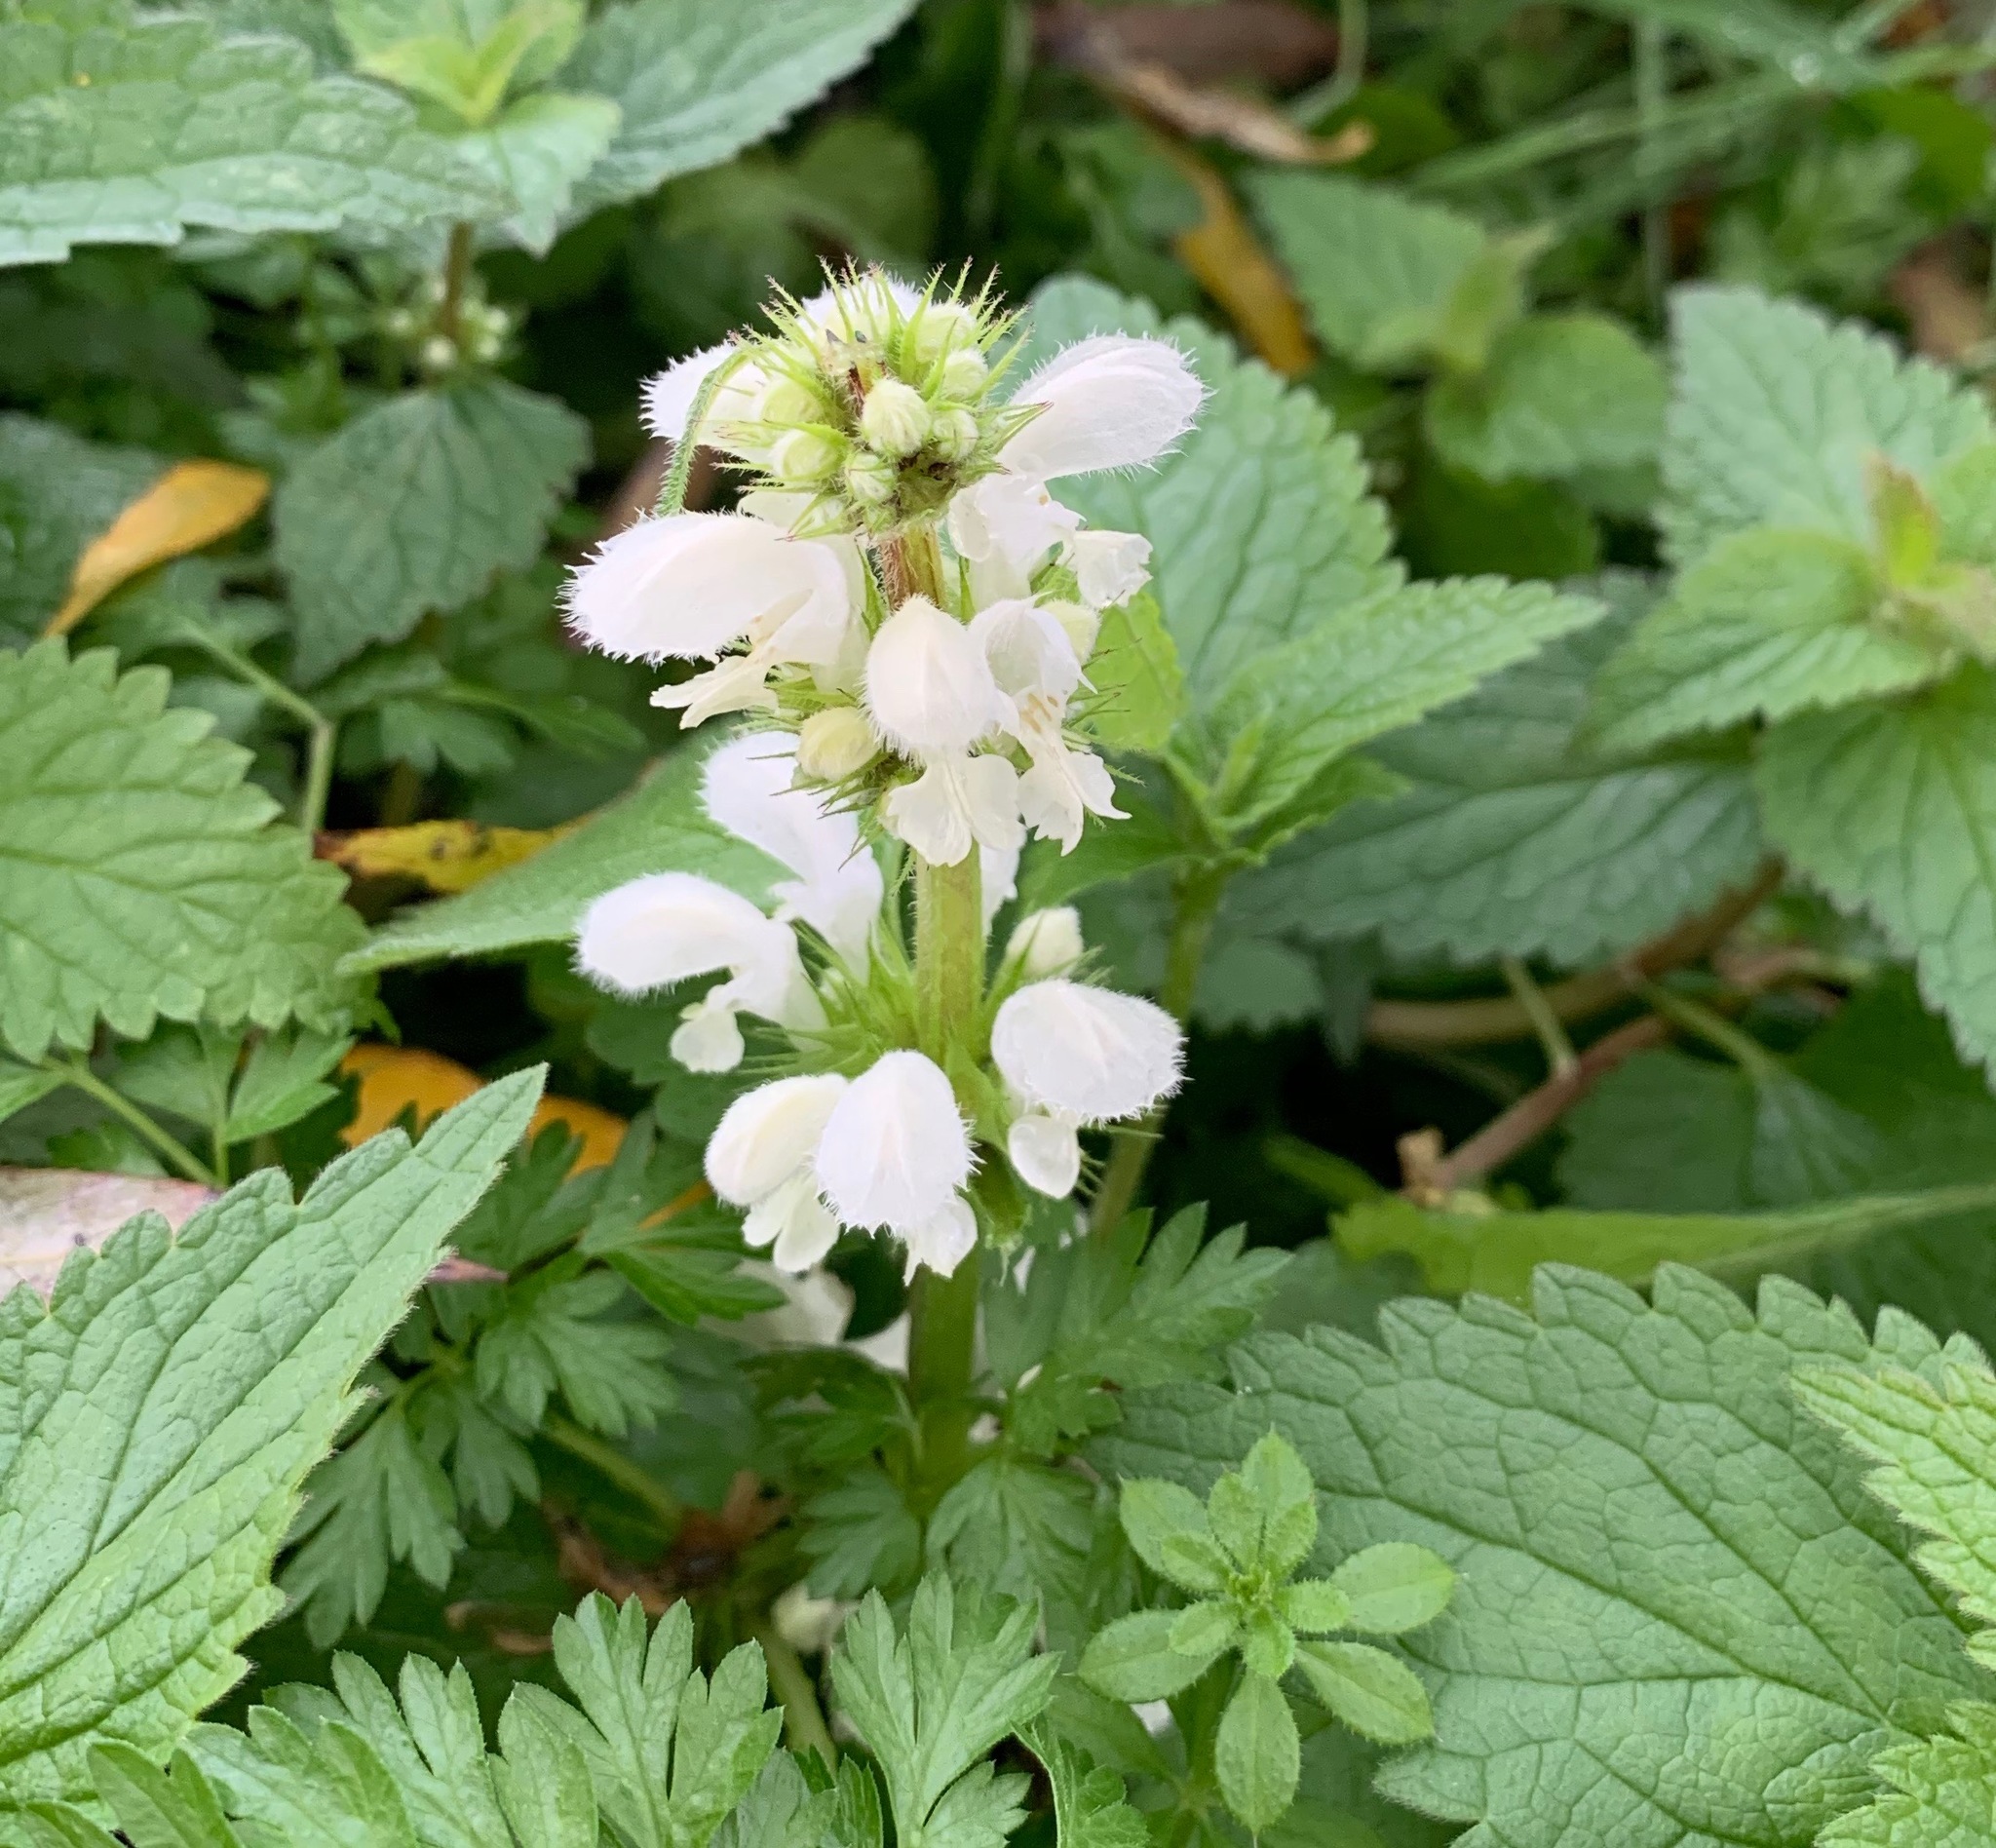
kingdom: Plantae
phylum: Tracheophyta
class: Magnoliopsida
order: Lamiales
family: Lamiaceae
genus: Lamium
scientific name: Lamium album
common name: White dead-nettle
